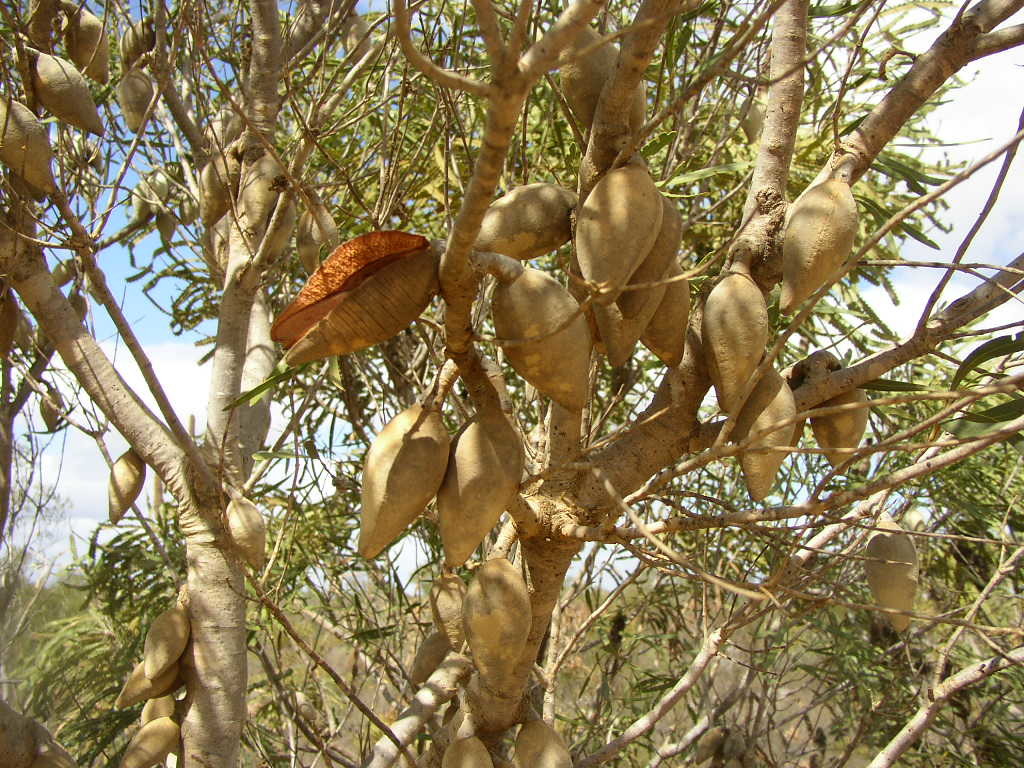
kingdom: Plantae
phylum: Tracheophyta
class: Magnoliopsida
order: Proteales
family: Proteaceae
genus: Xylomelum
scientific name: Xylomelum angustifolium
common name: Sandplain woody-pear
